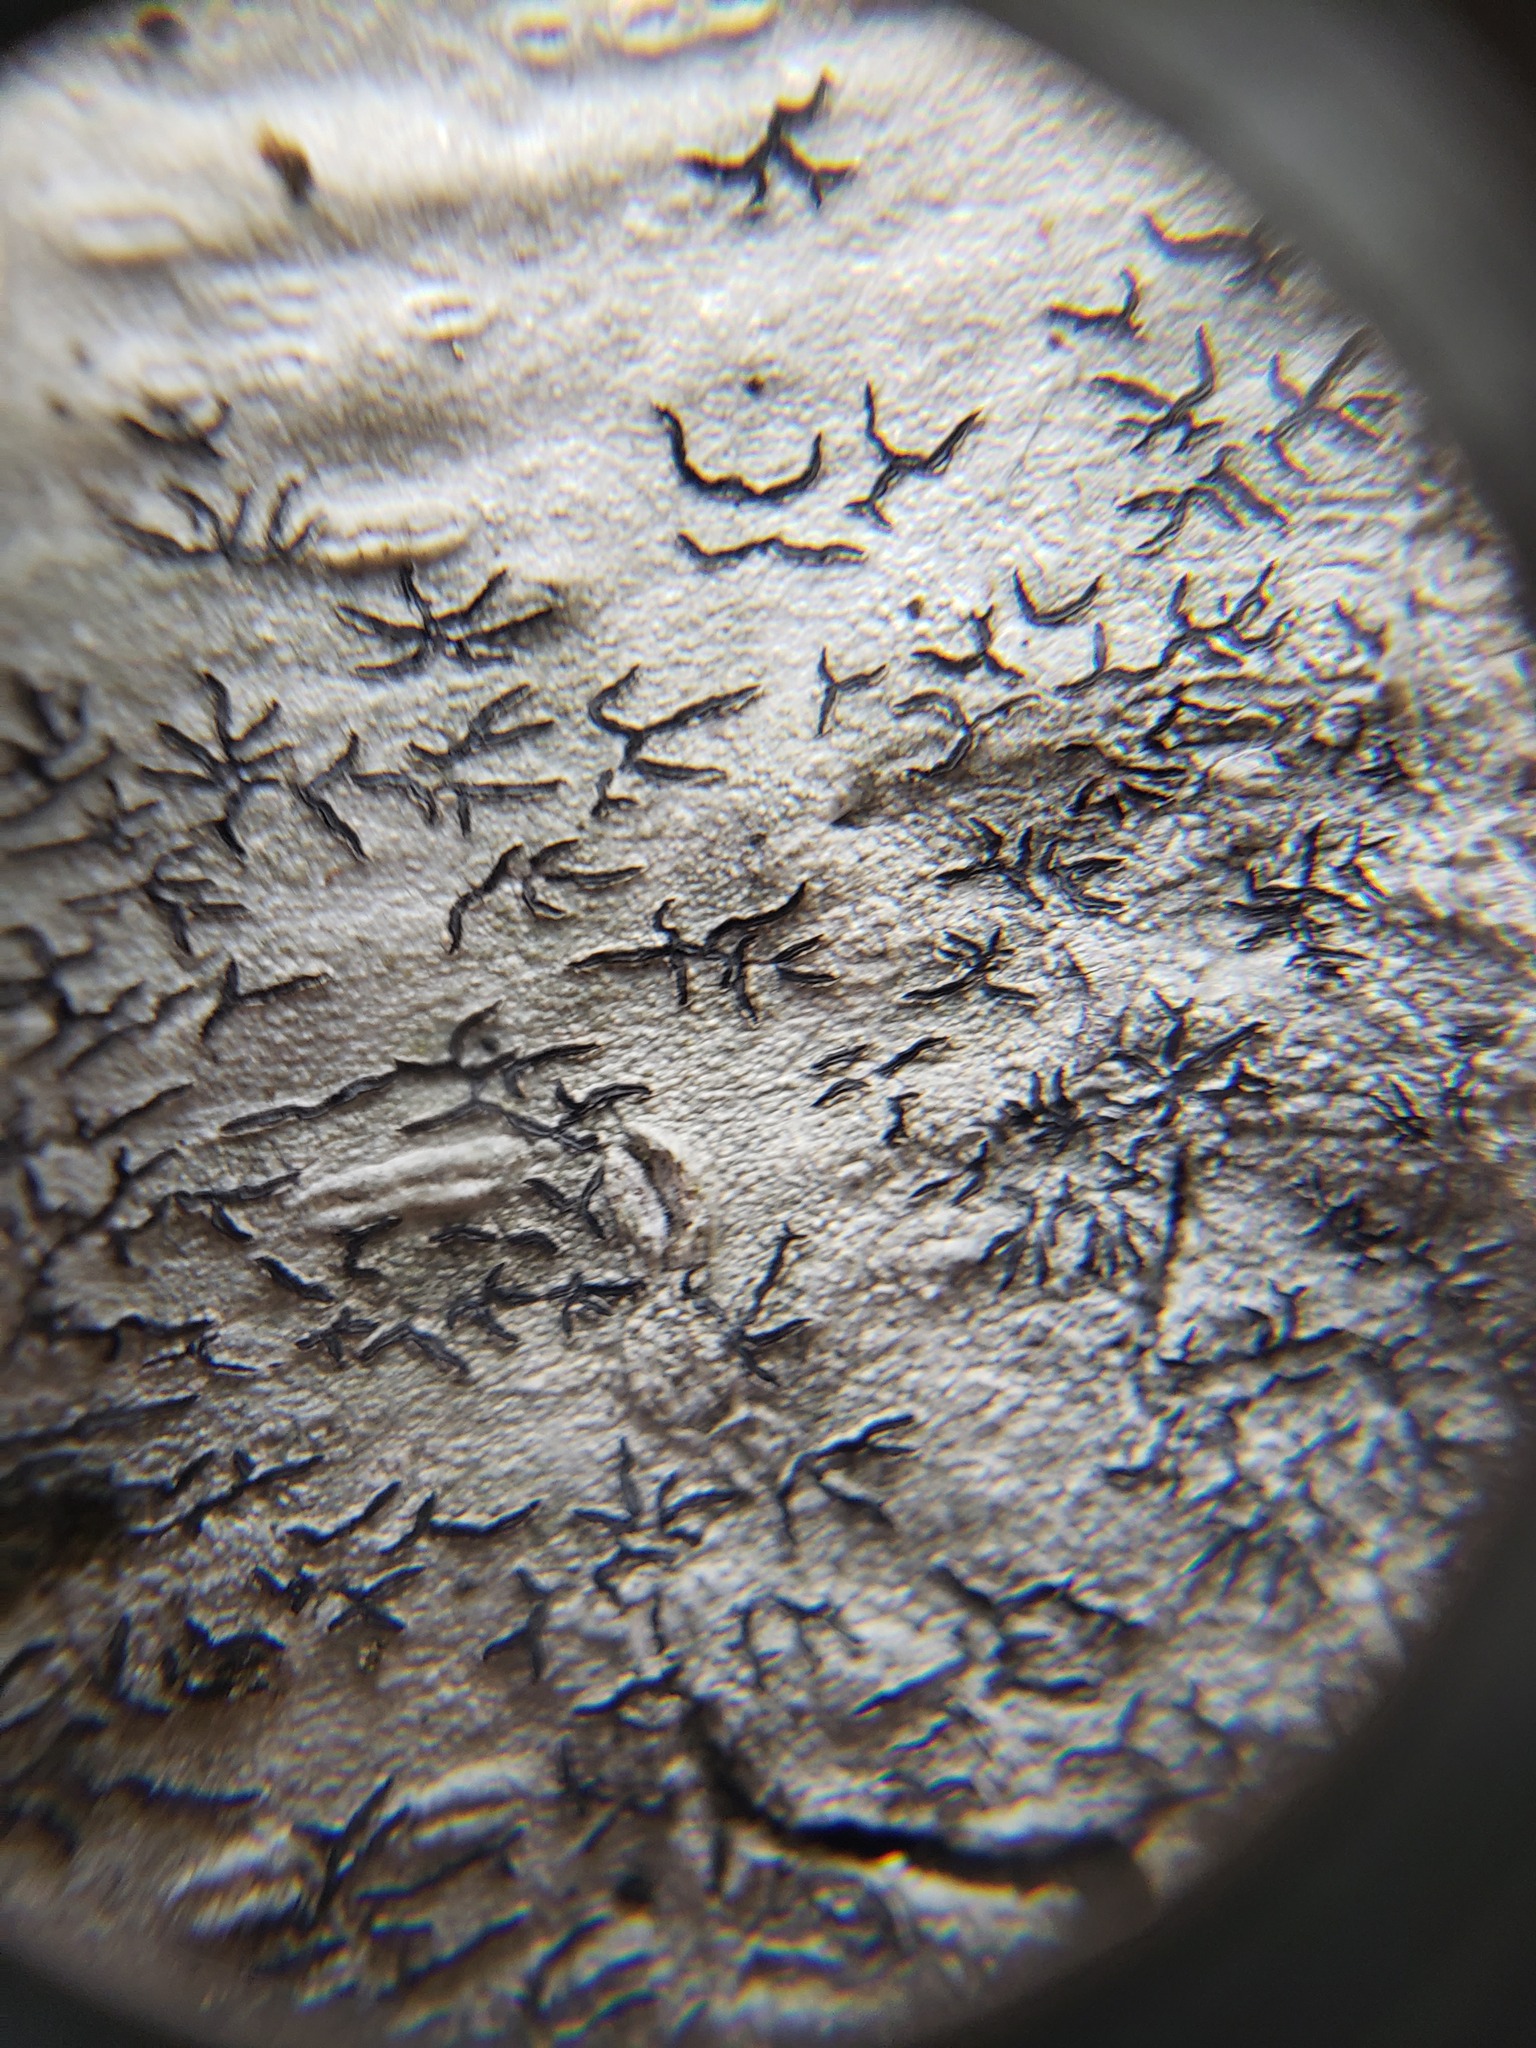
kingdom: Fungi
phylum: Ascomycota
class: Lecanoromycetes
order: Ostropales
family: Graphidaceae
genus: Graphis
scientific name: Graphis scripta
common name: Script lichen
